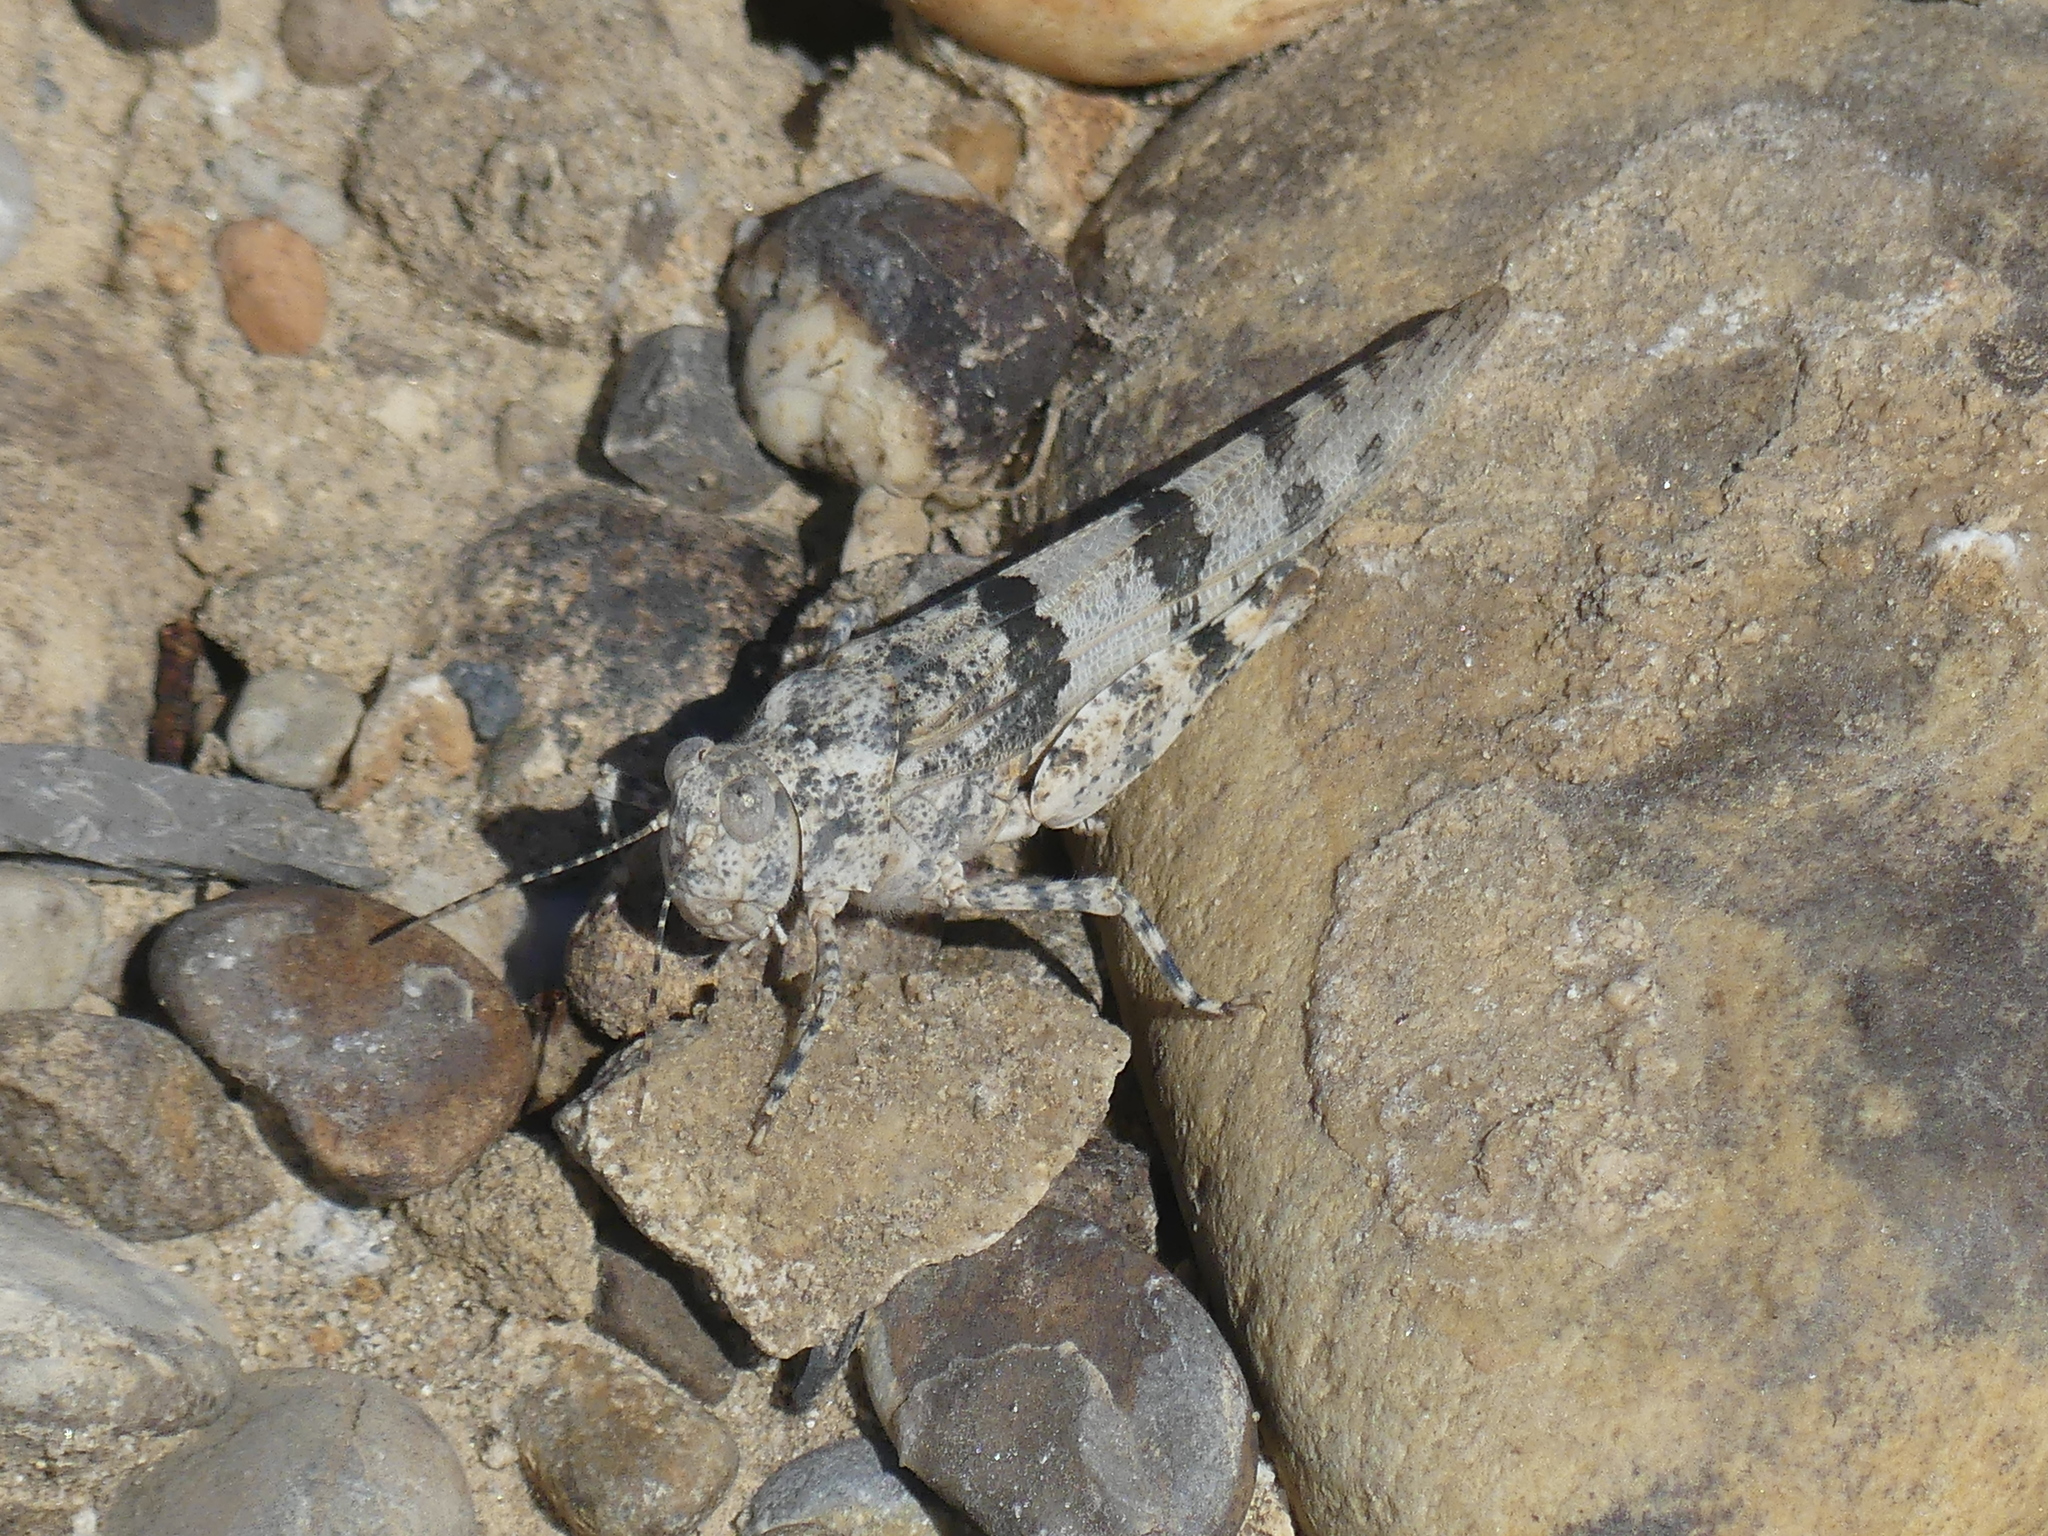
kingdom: Animalia
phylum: Arthropoda
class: Insecta
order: Orthoptera
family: Acrididae
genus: Sphingonotus
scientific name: Sphingonotus caerulans
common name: Blue-winged locust
